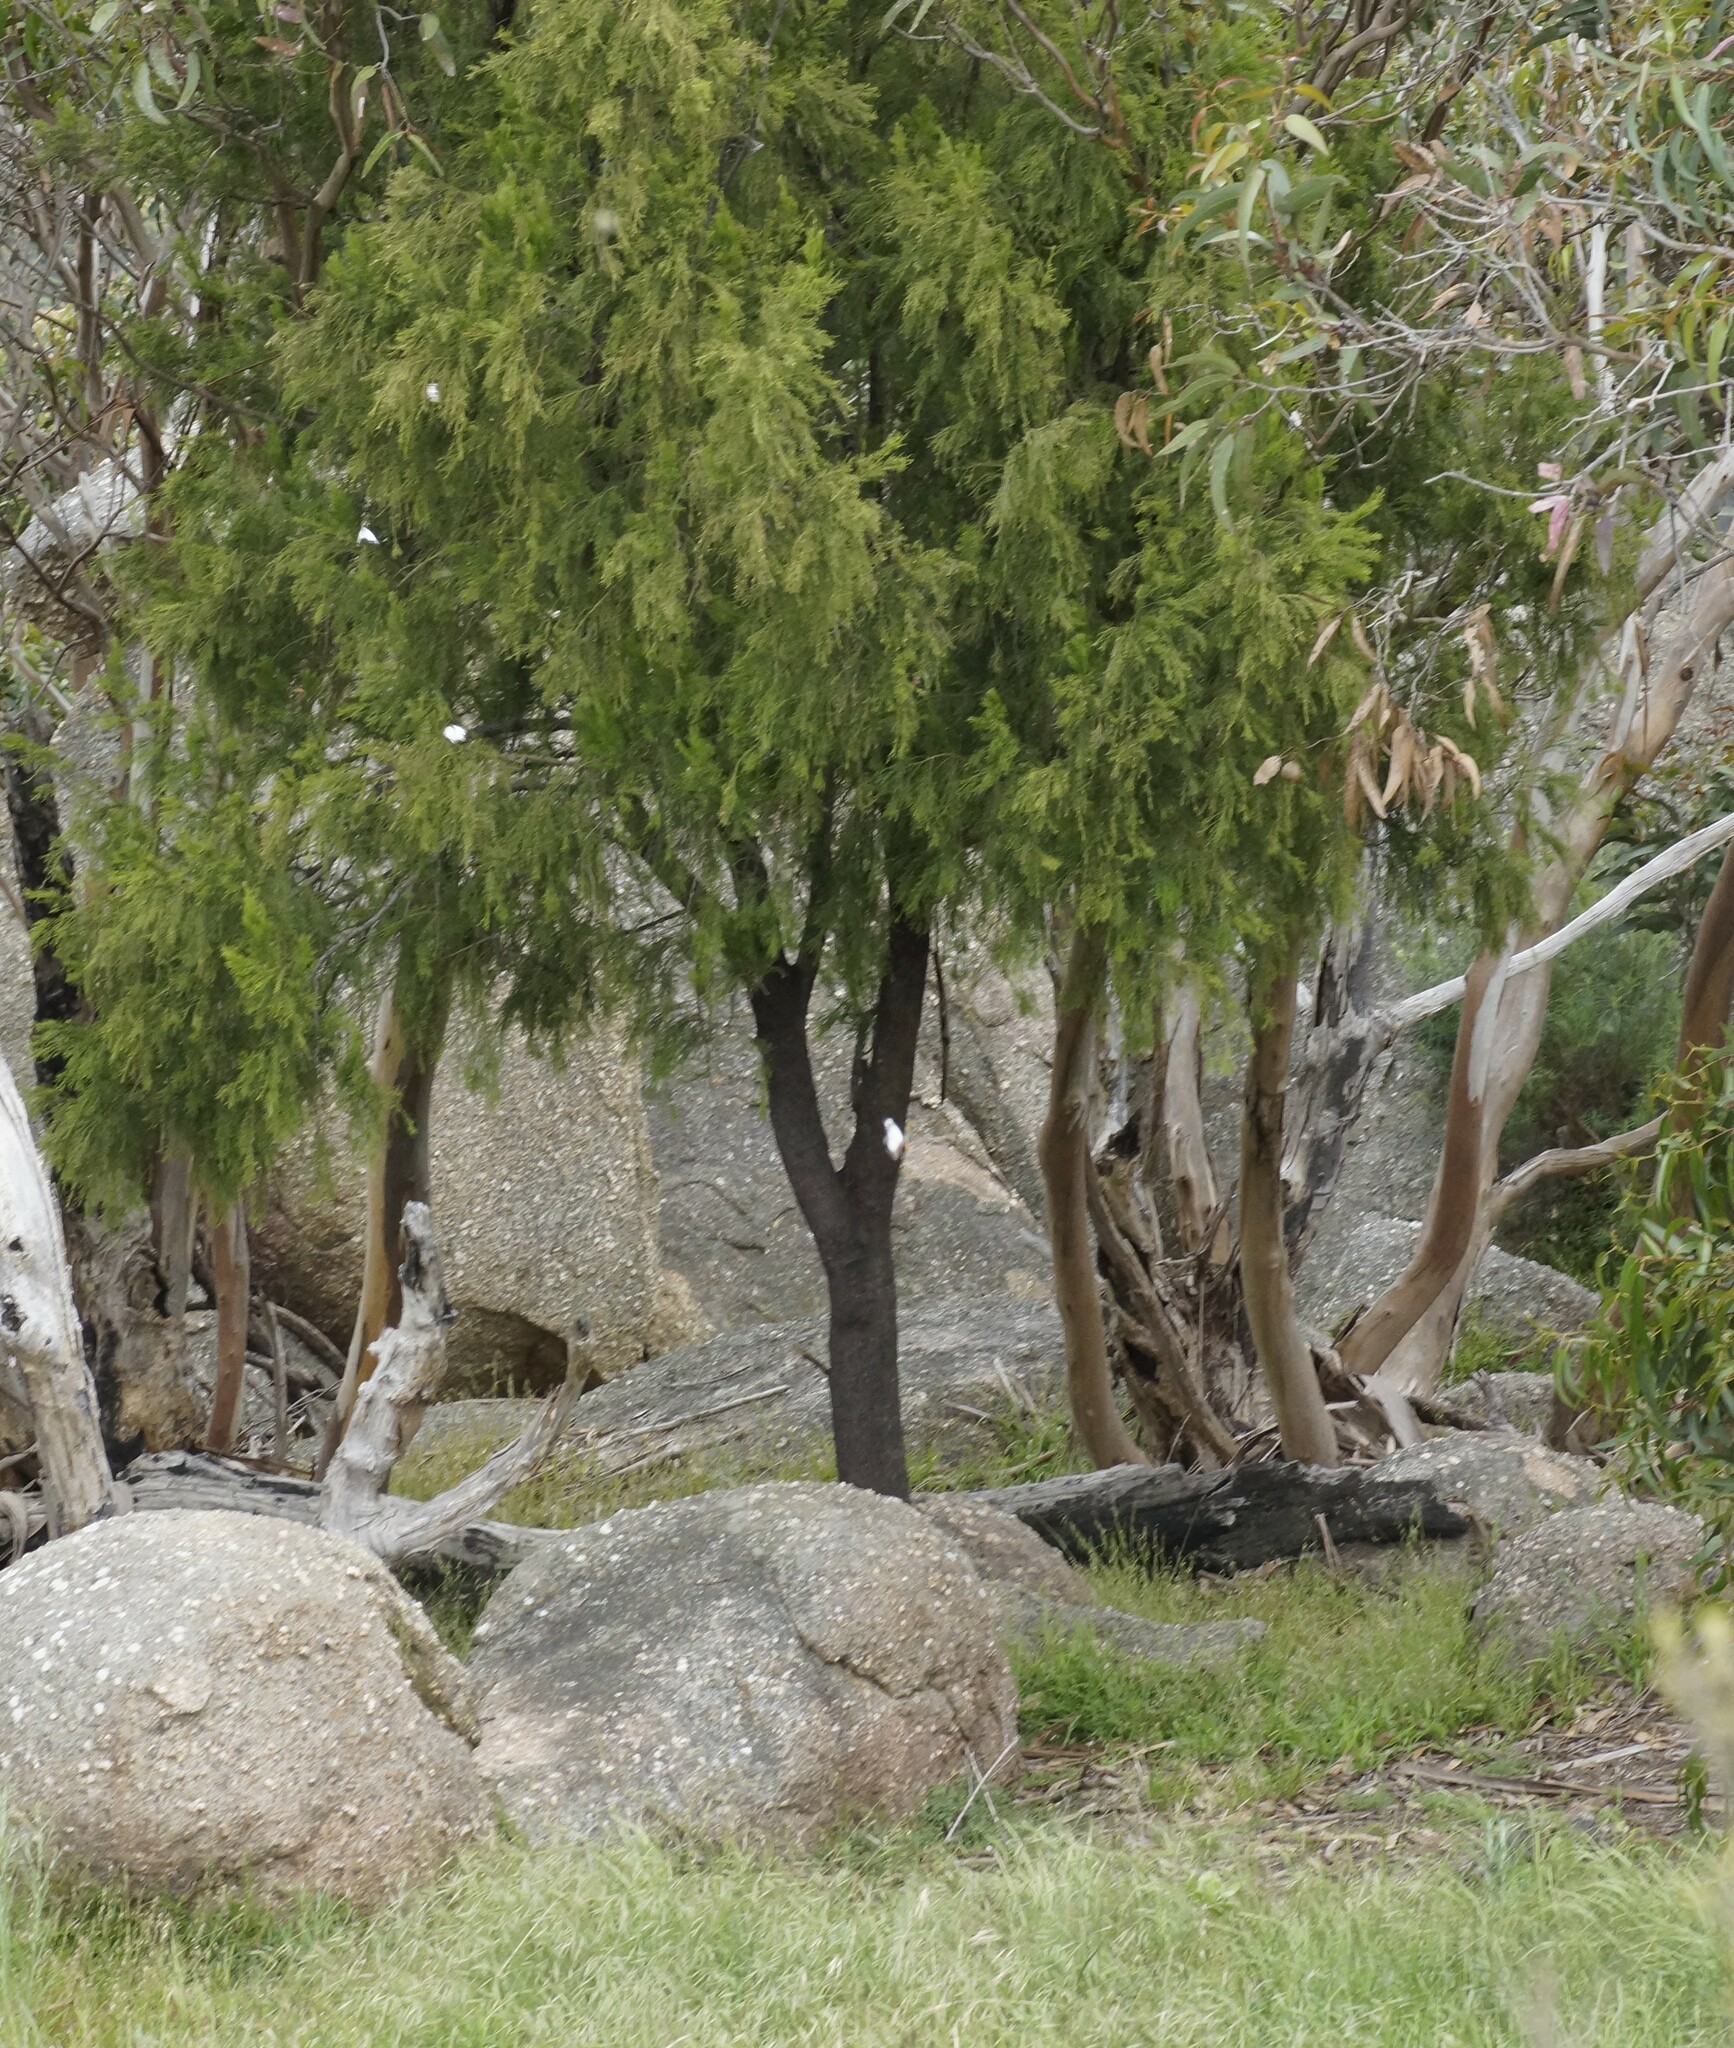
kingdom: Plantae
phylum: Tracheophyta
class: Magnoliopsida
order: Santalales
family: Santalaceae
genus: Exocarpos
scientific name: Exocarpos cupressiformis
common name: Cherry ballart
